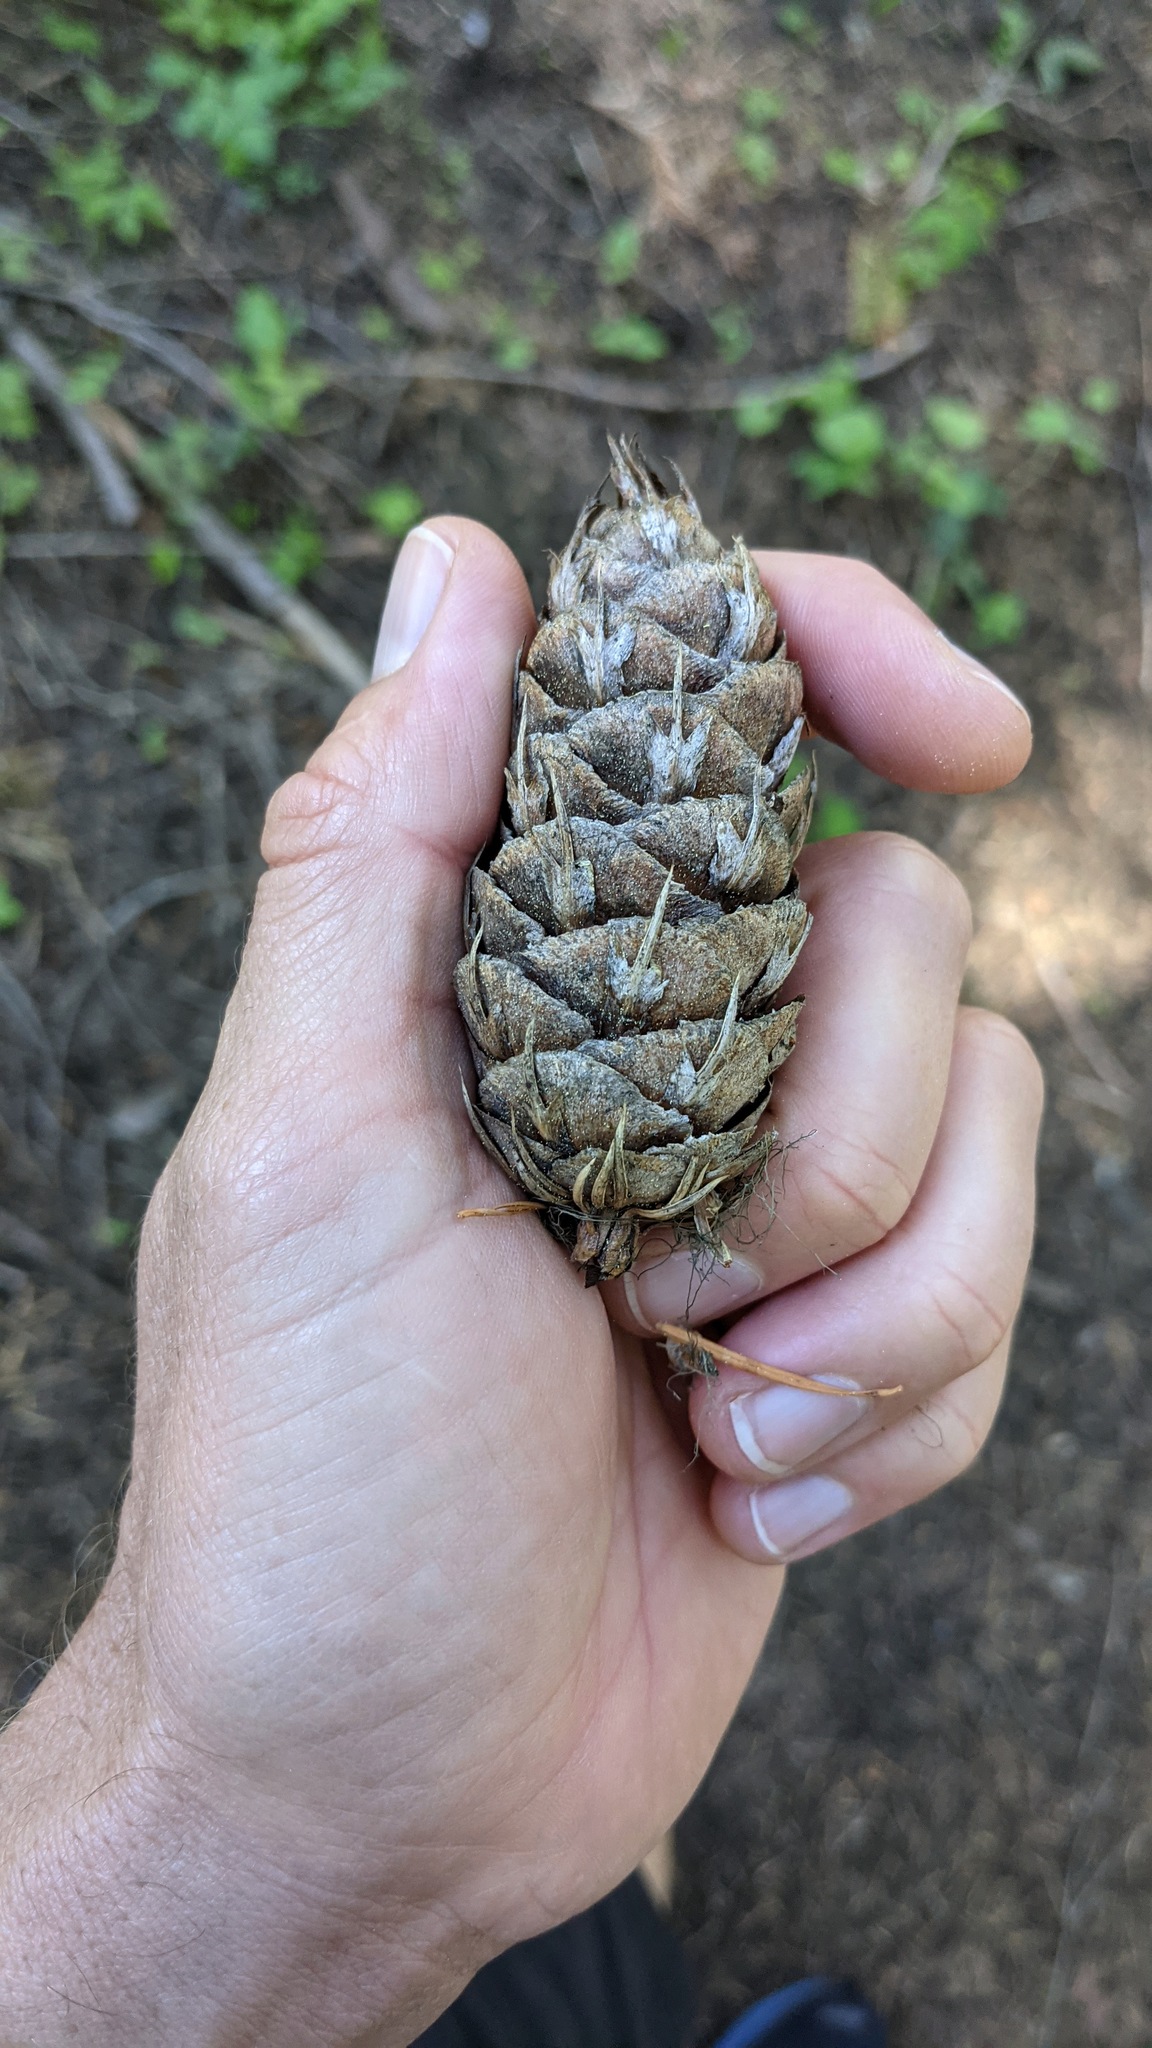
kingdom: Plantae
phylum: Tracheophyta
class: Pinopsida
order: Pinales
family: Pinaceae
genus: Pseudotsuga
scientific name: Pseudotsuga menziesii
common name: Douglas fir
